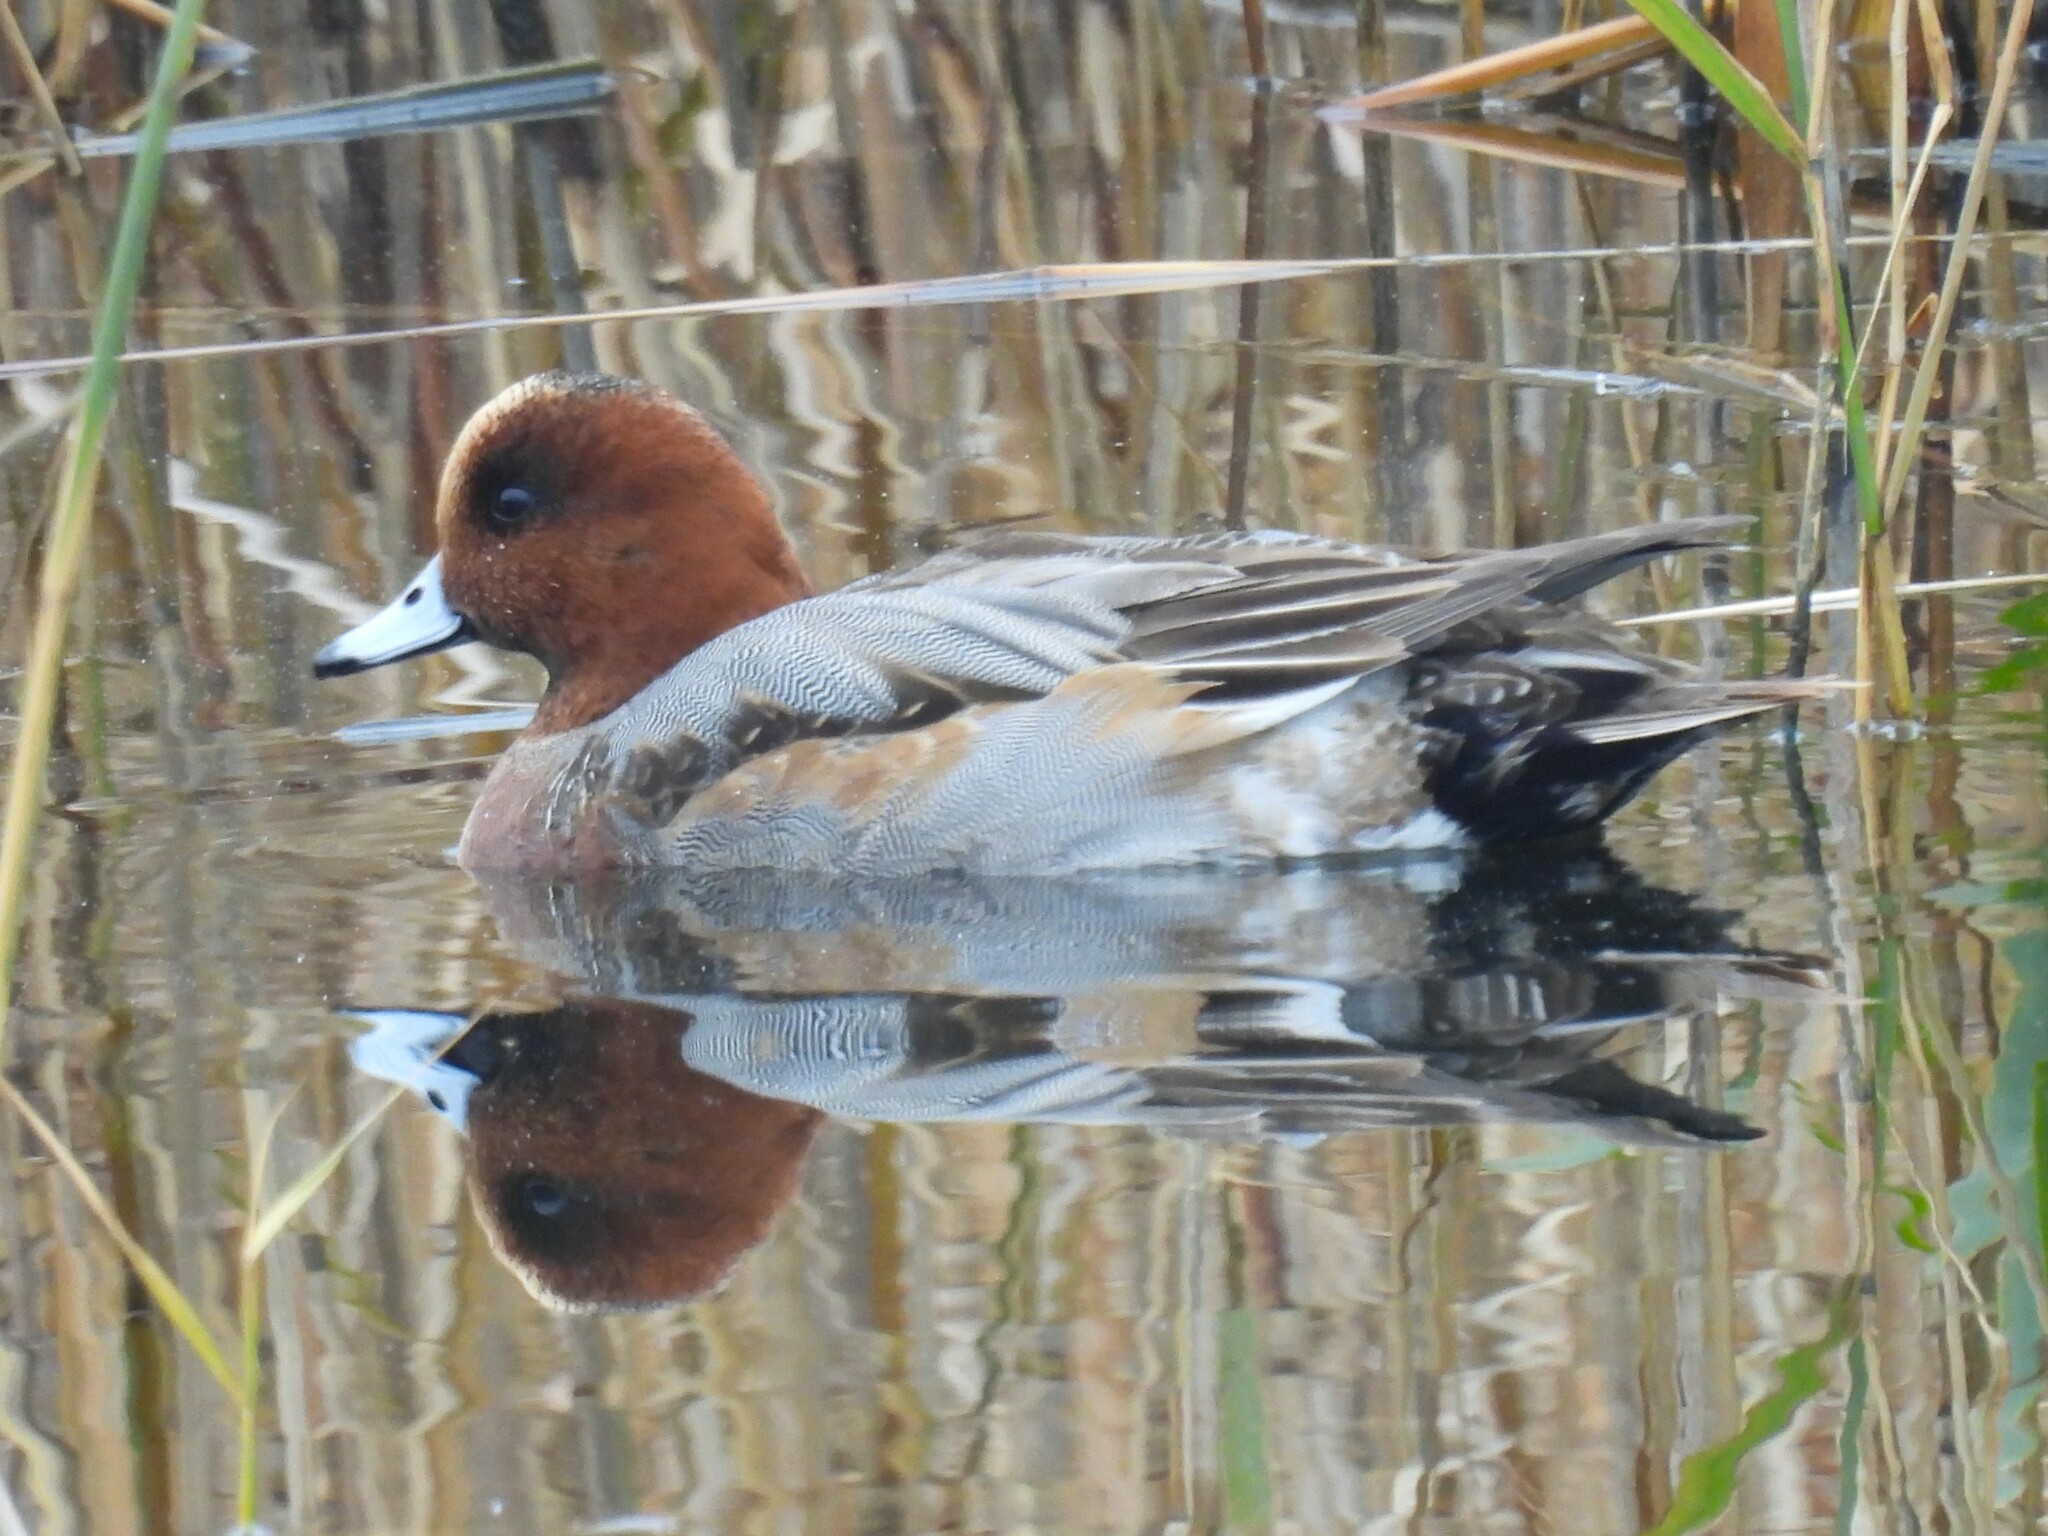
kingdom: Animalia
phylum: Chordata
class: Aves
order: Anseriformes
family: Anatidae
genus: Mareca
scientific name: Mareca penelope
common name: Eurasian wigeon
